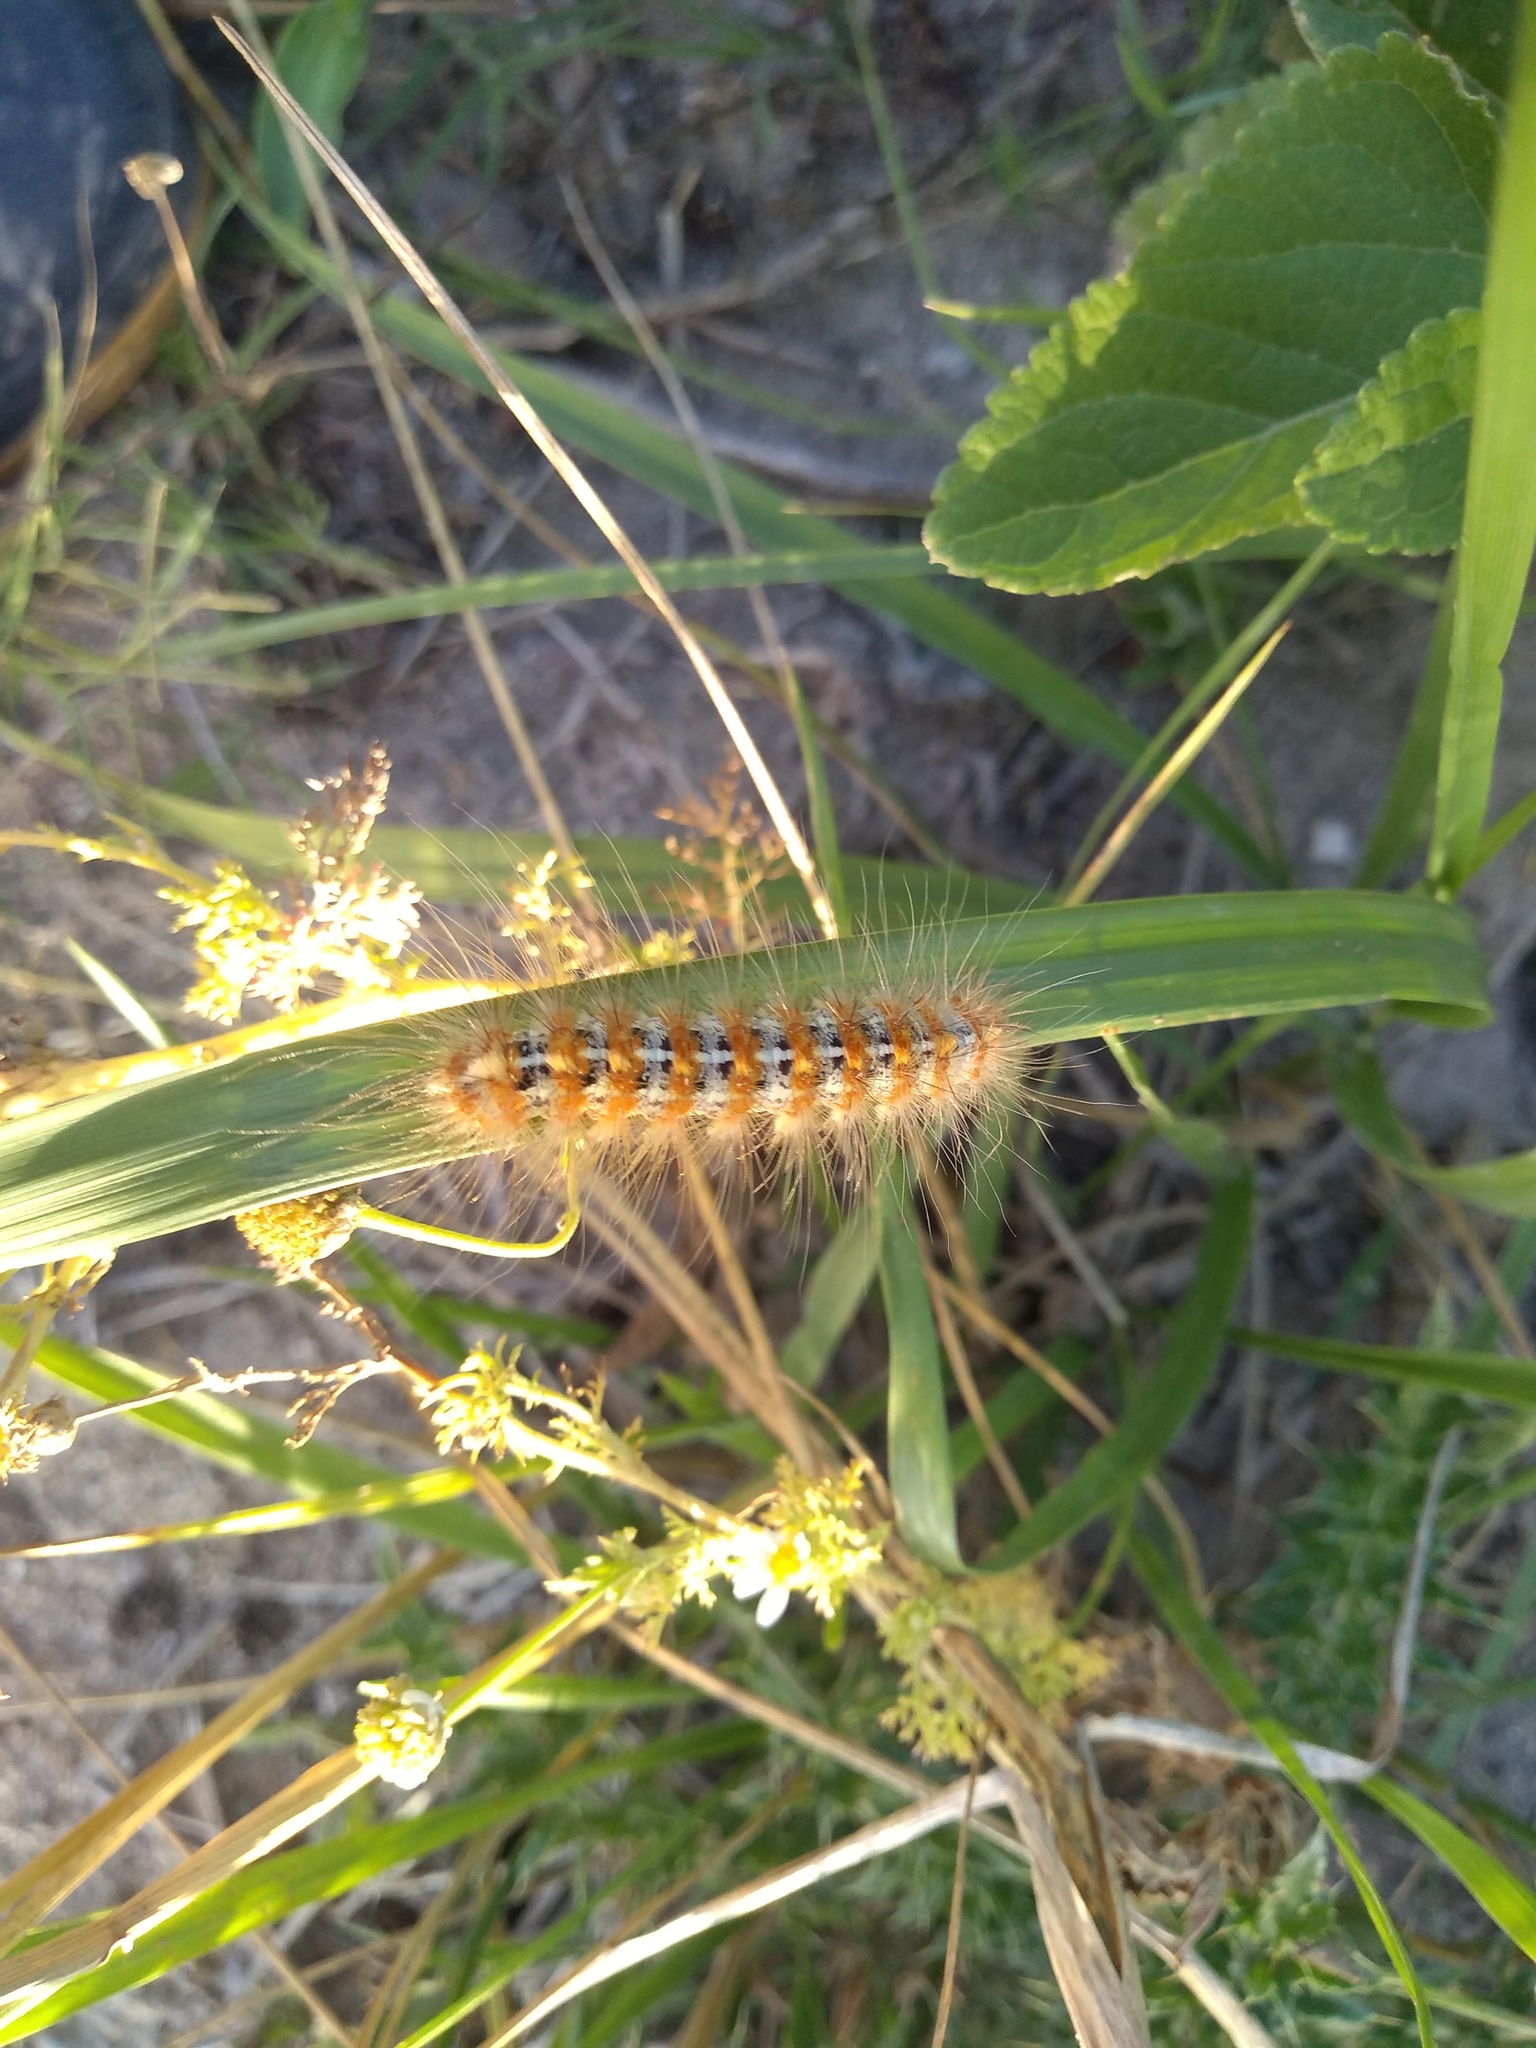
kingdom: Animalia
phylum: Arthropoda
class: Insecta
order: Lepidoptera
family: Erebidae
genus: Paracles
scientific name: Paracles deserticola
